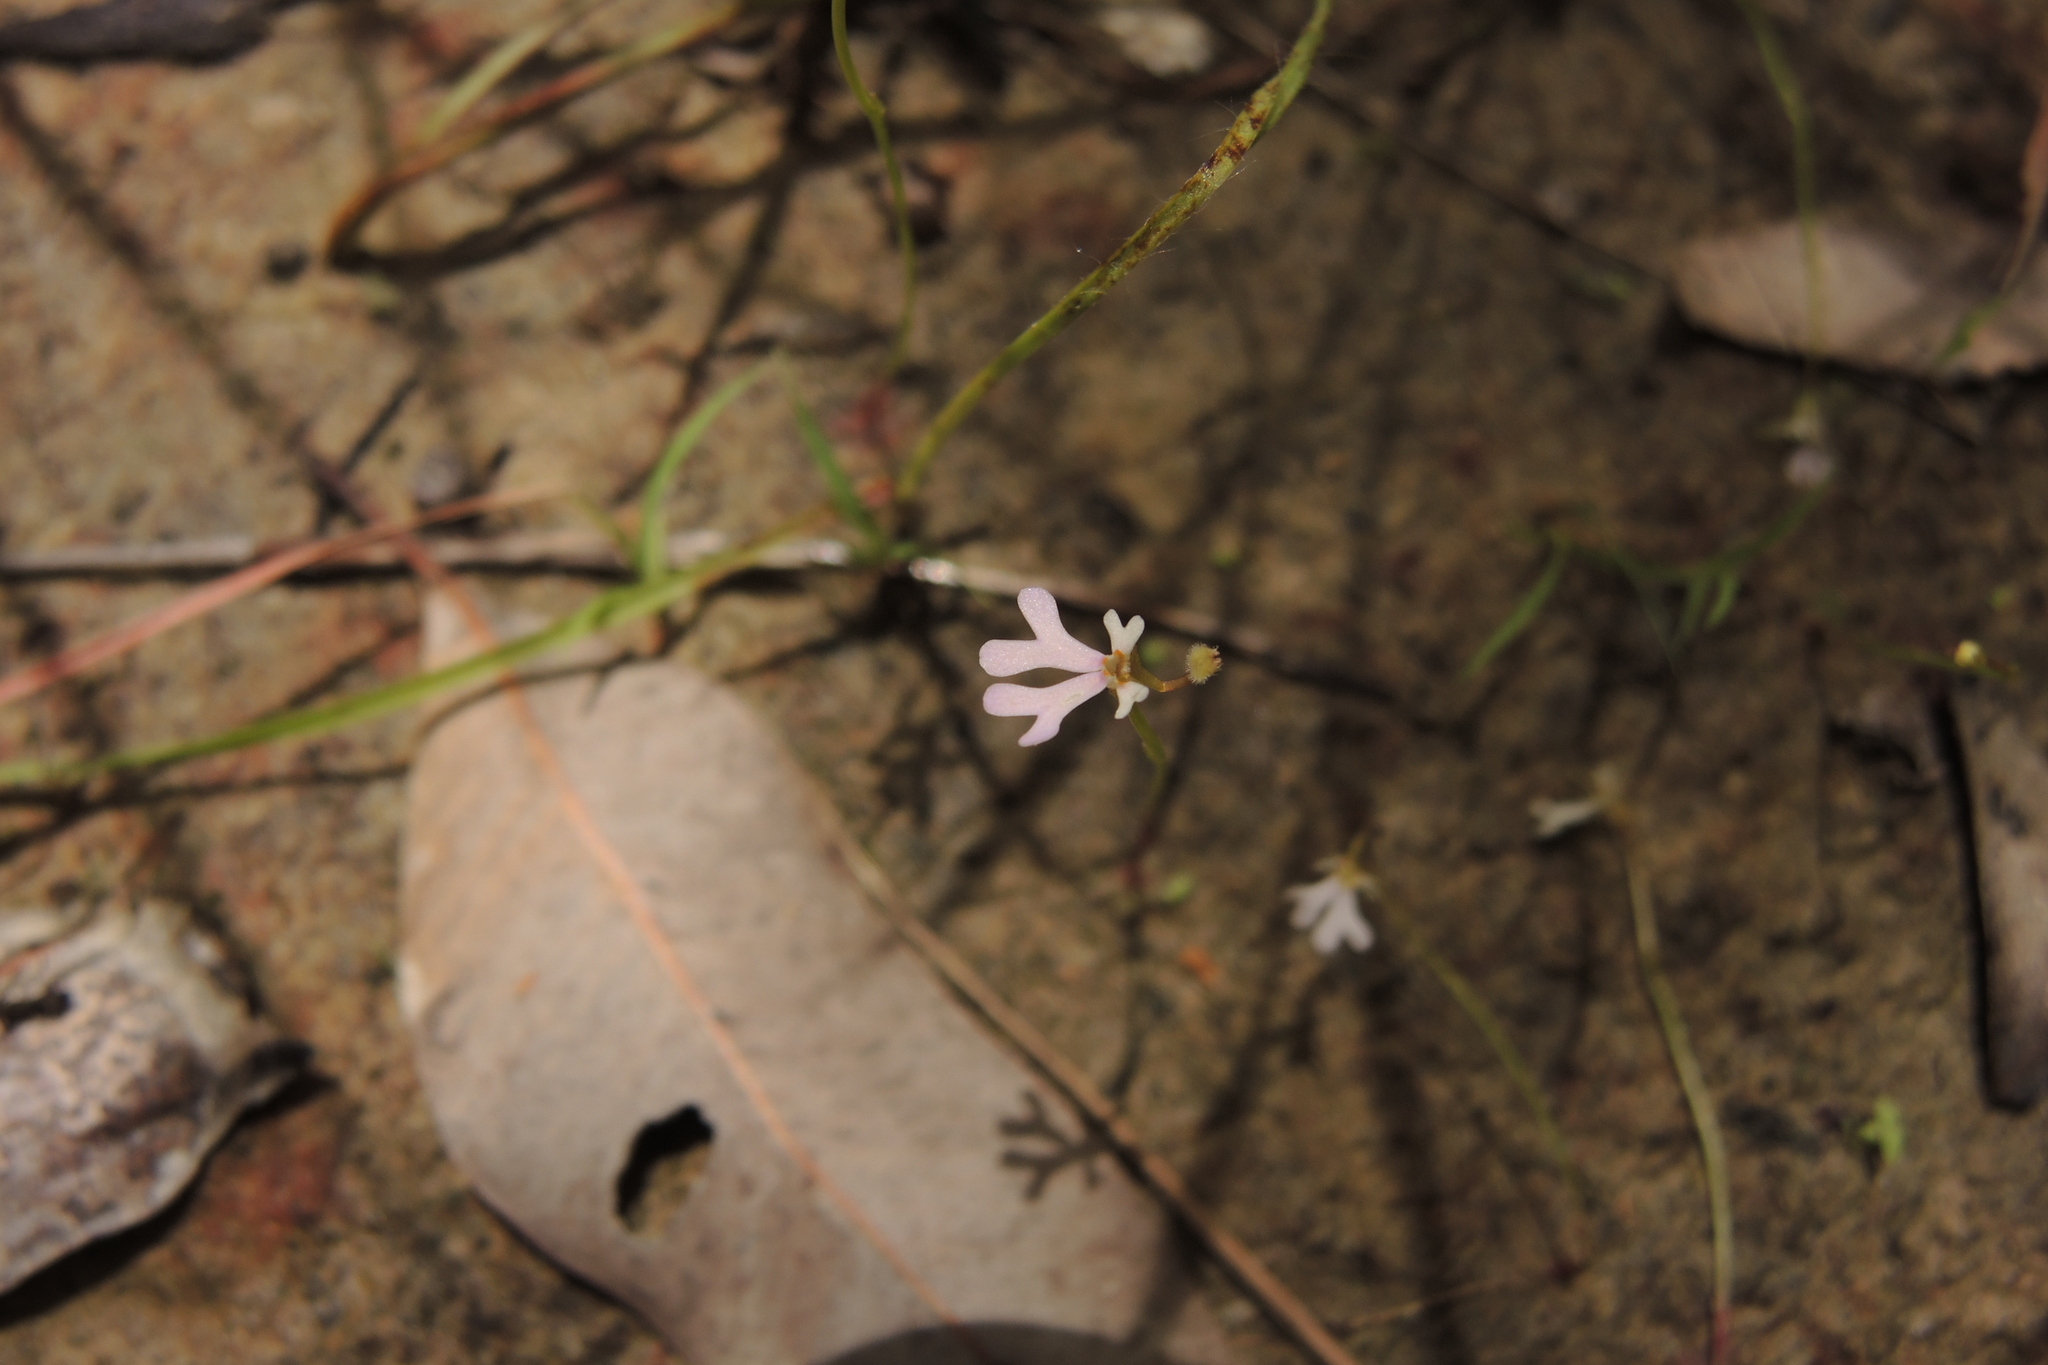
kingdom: Plantae
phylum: Tracheophyta
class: Magnoliopsida
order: Asterales
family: Stylidiaceae
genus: Stylidium
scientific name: Stylidium capillare
